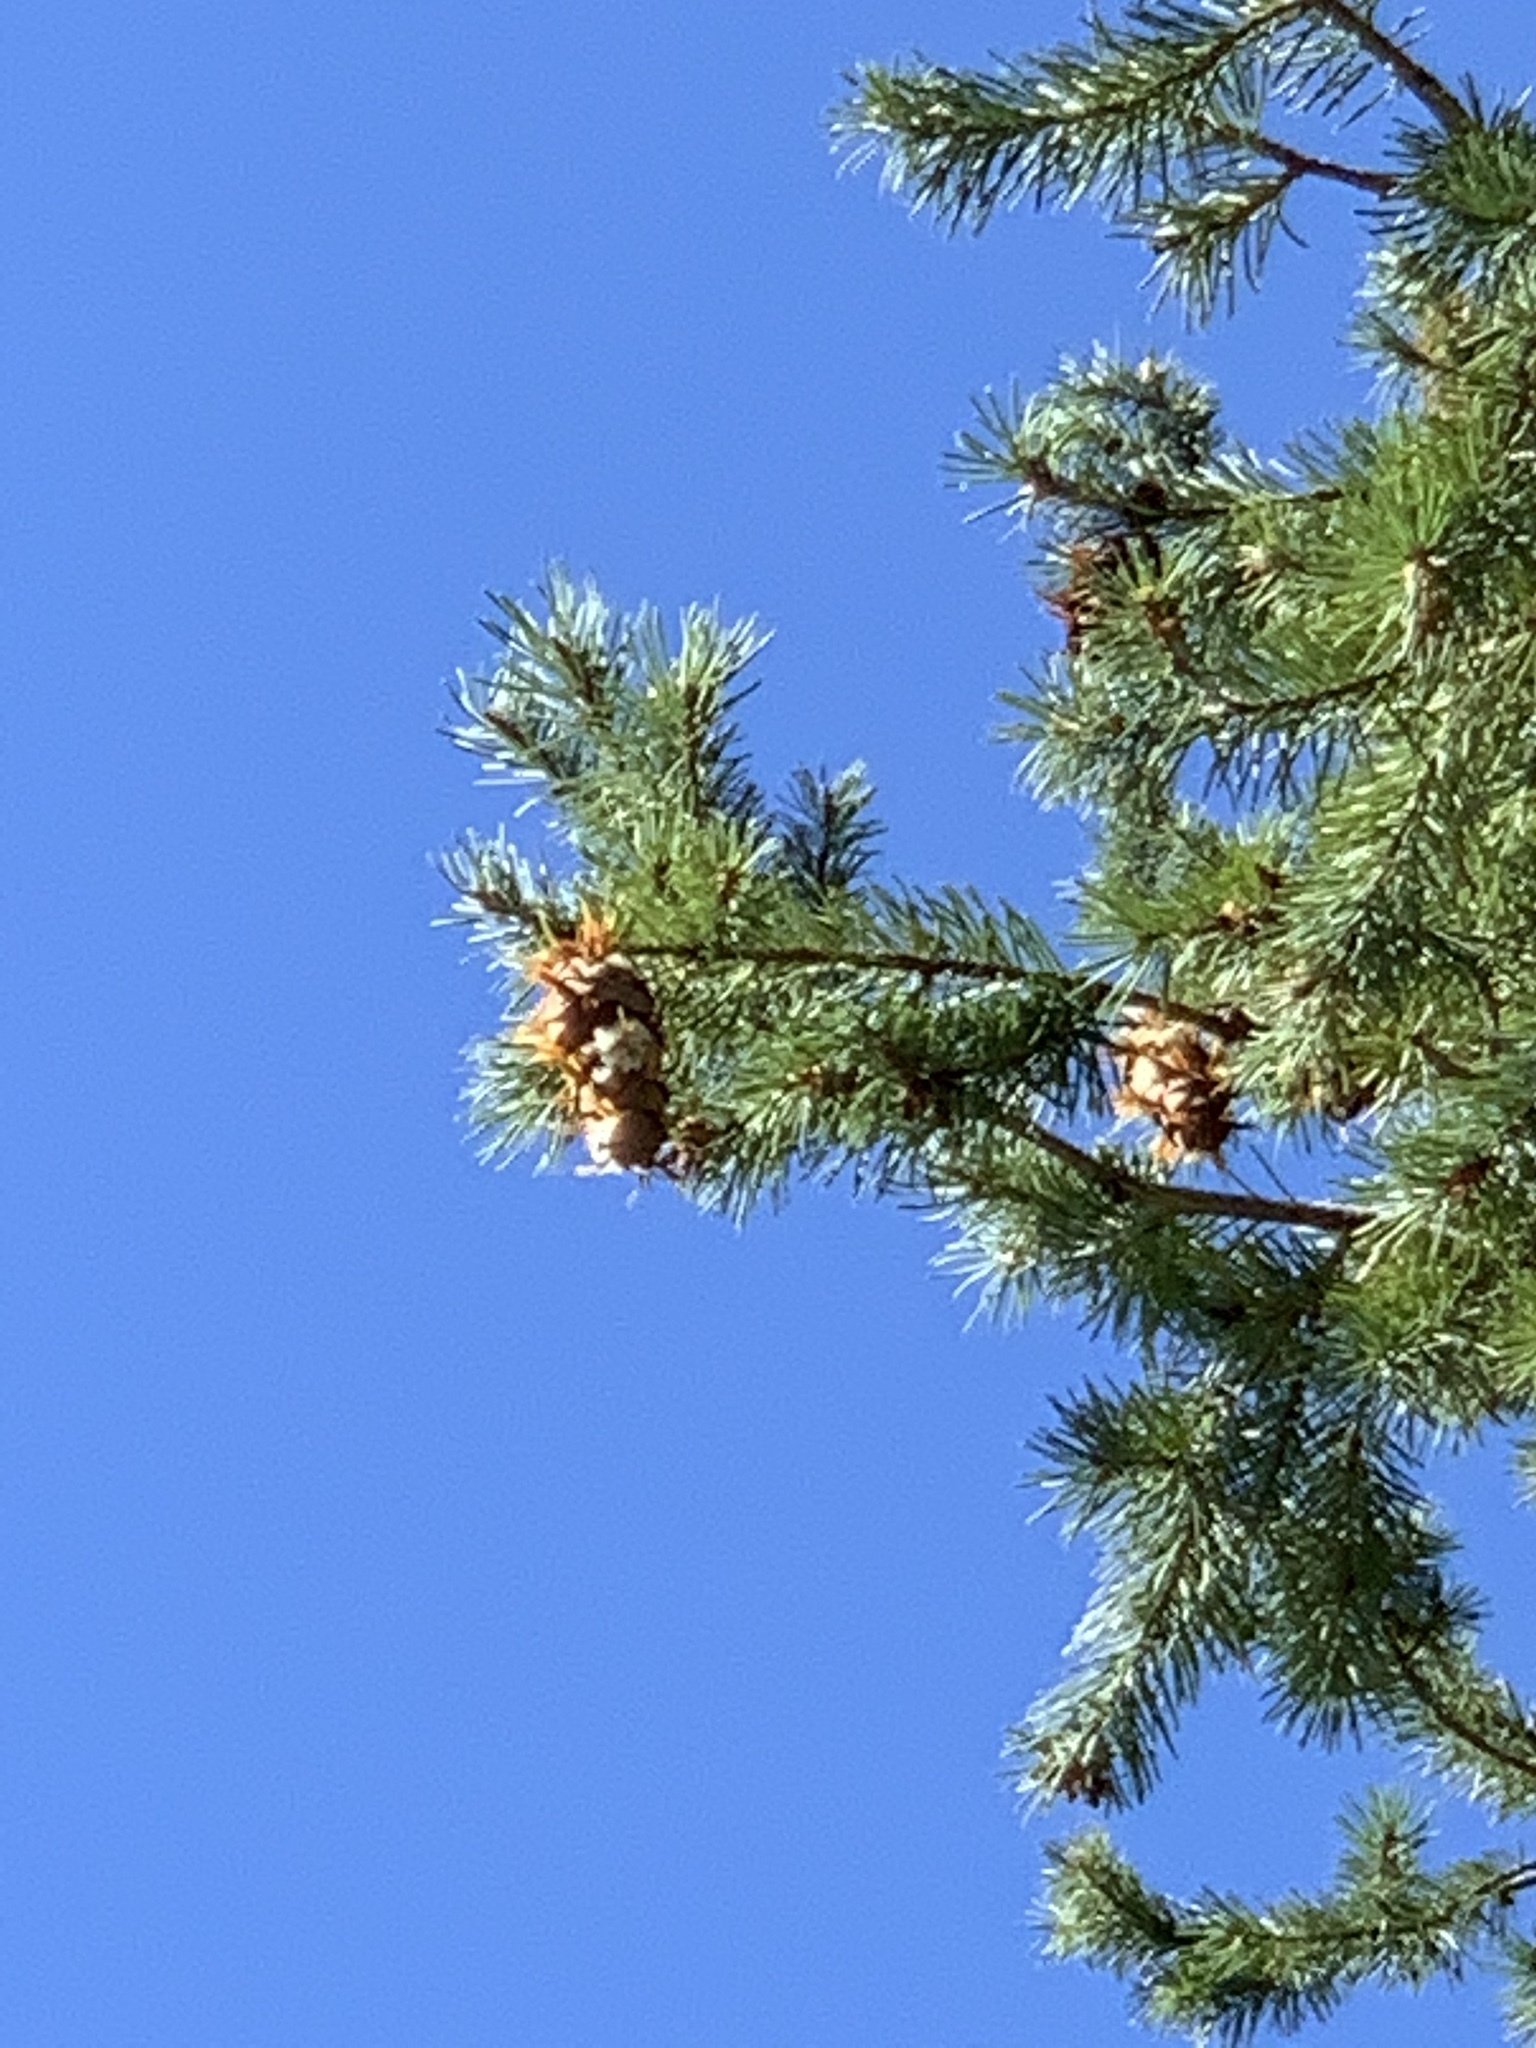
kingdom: Plantae
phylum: Tracheophyta
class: Pinopsida
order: Pinales
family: Pinaceae
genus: Pseudotsuga
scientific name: Pseudotsuga menziesii
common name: Douglas fir
